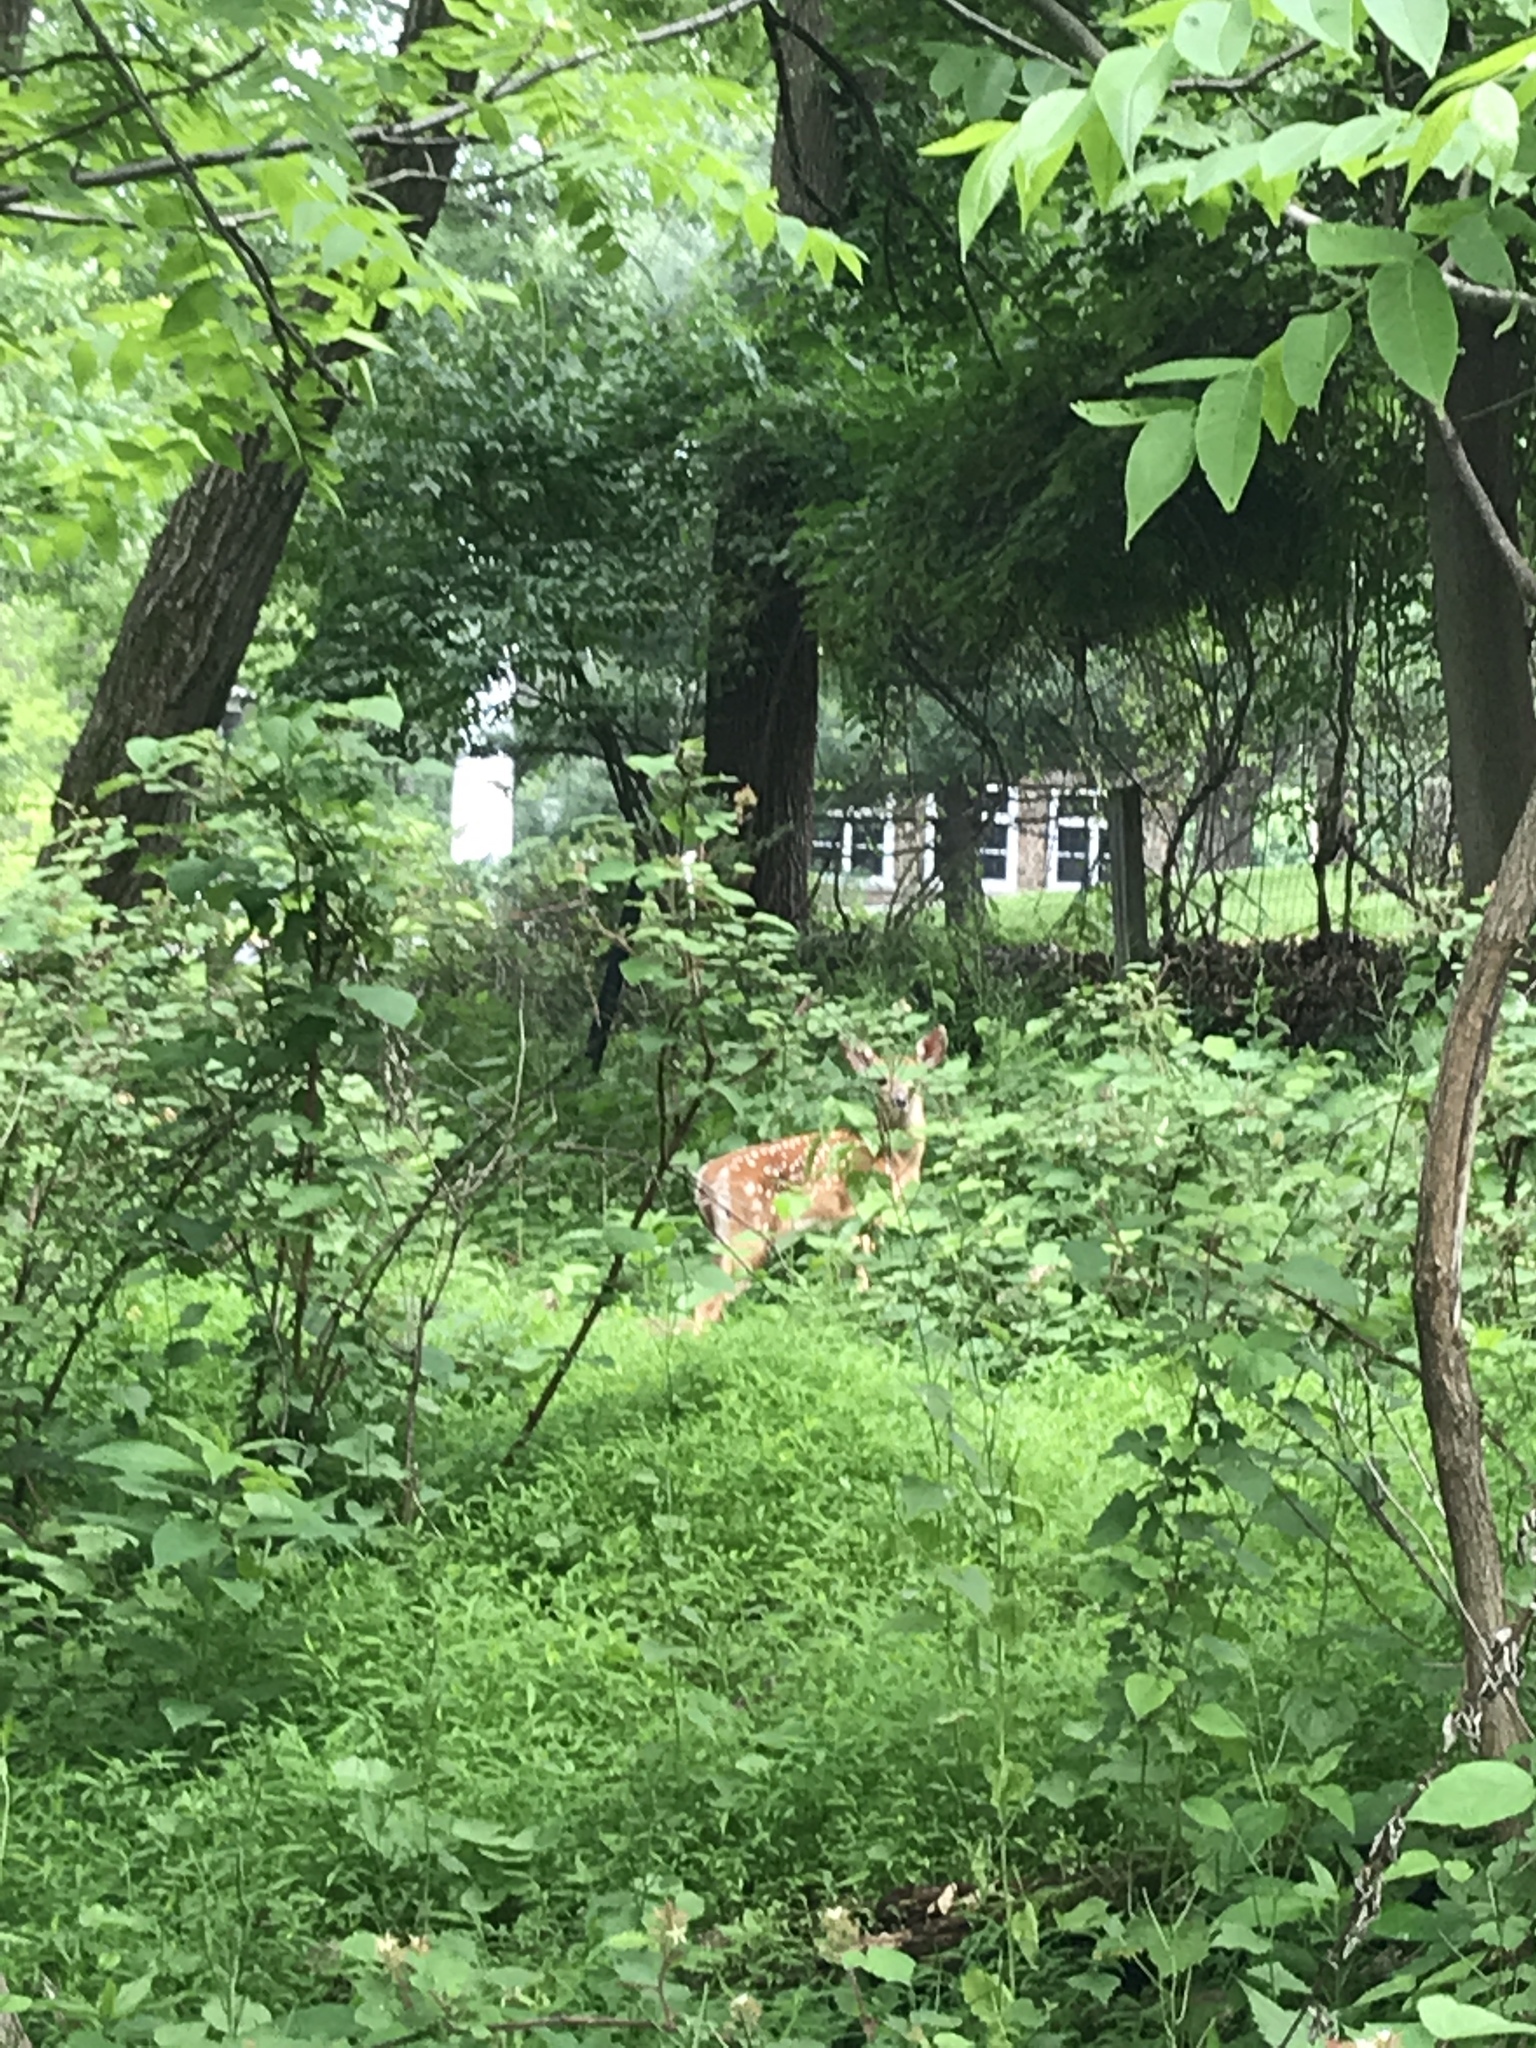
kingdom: Animalia
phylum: Chordata
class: Mammalia
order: Artiodactyla
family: Cervidae
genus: Odocoileus
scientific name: Odocoileus virginianus
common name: White-tailed deer
